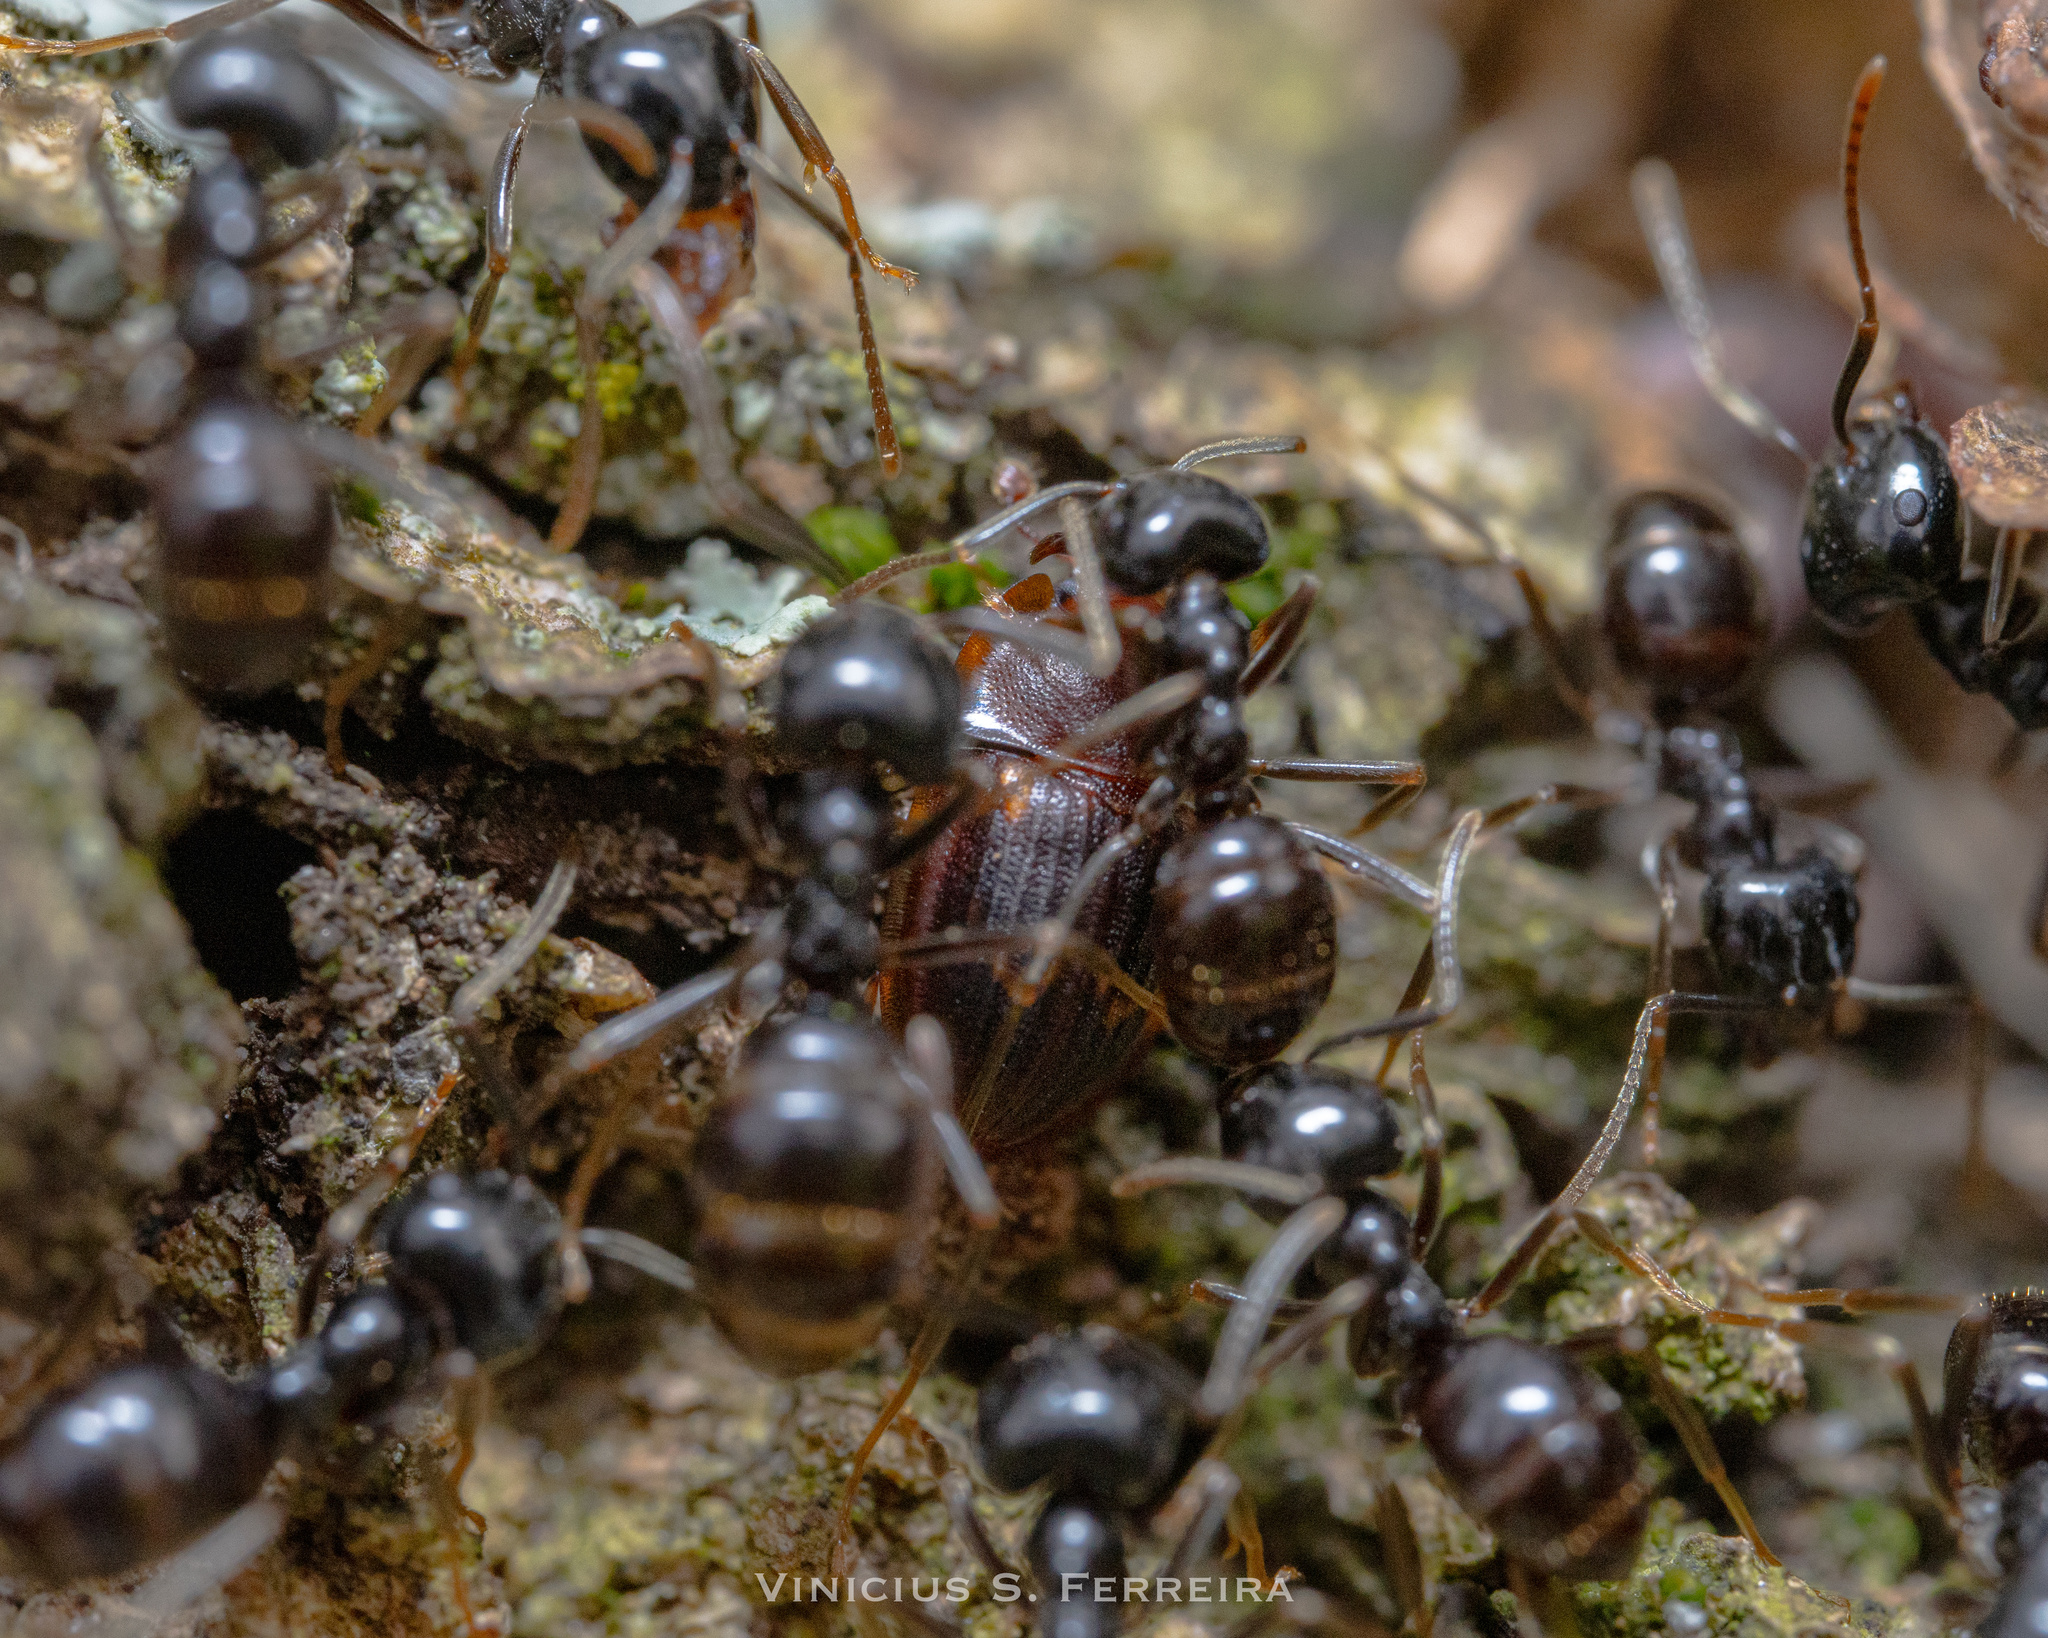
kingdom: Animalia
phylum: Arthropoda
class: Insecta
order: Coleoptera
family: Nitidulidae
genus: Amphotis
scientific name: Amphotis marginata
